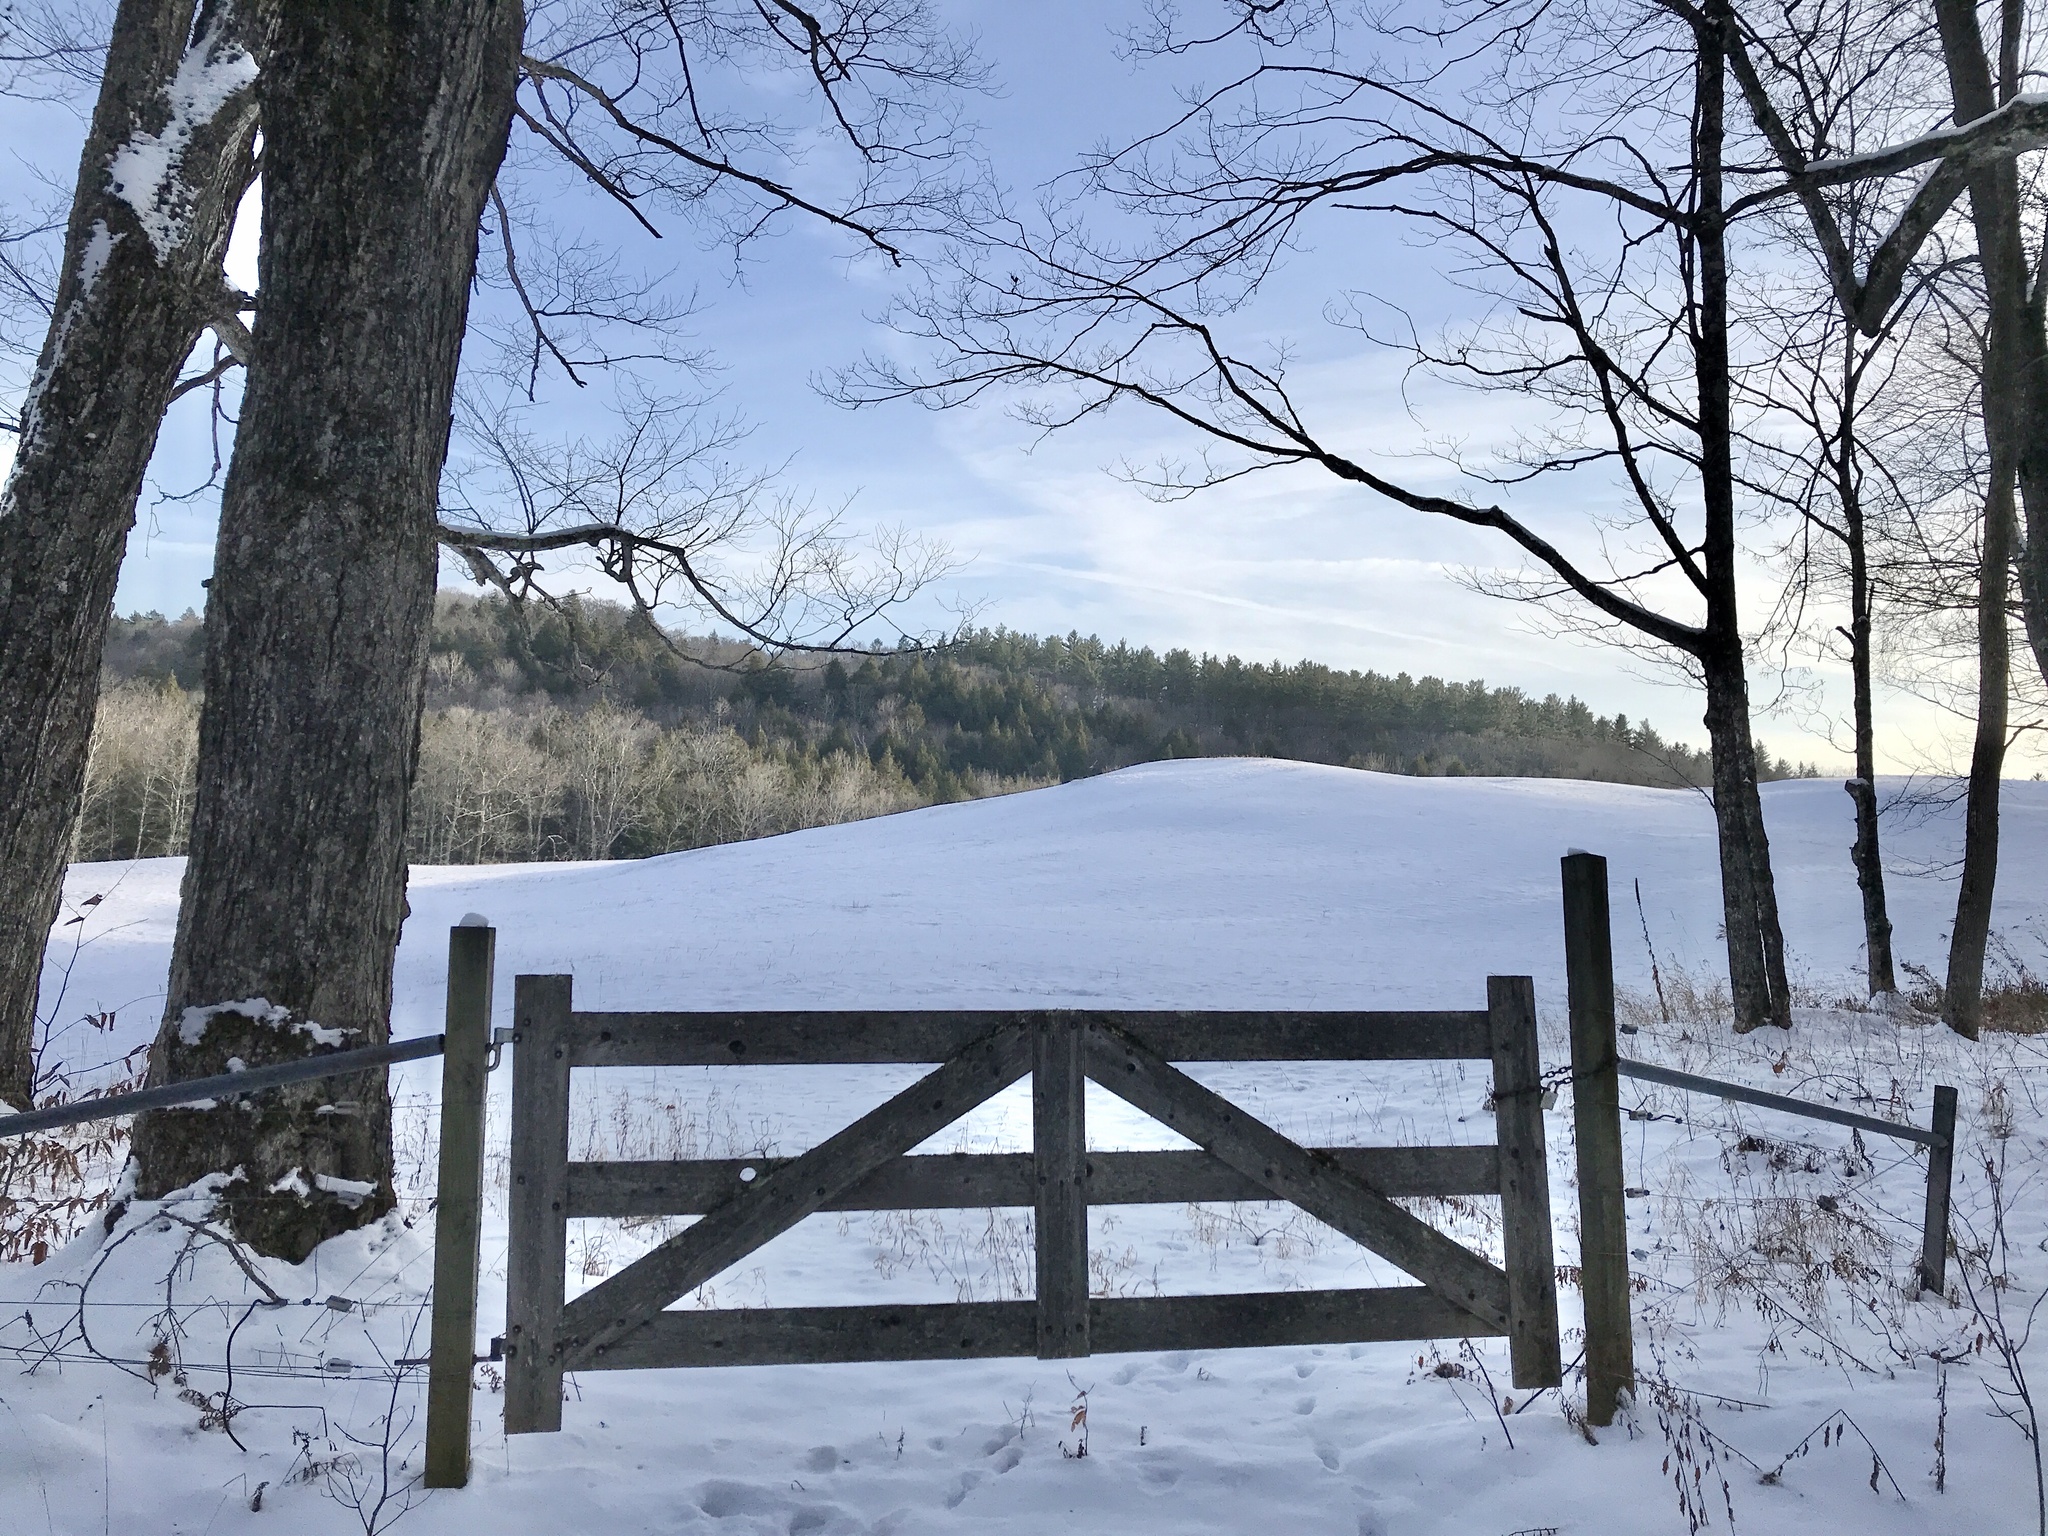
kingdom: Plantae
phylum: Tracheophyta
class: Magnoliopsida
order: Sapindales
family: Sapindaceae
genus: Acer
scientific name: Acer saccharum
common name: Sugar maple
